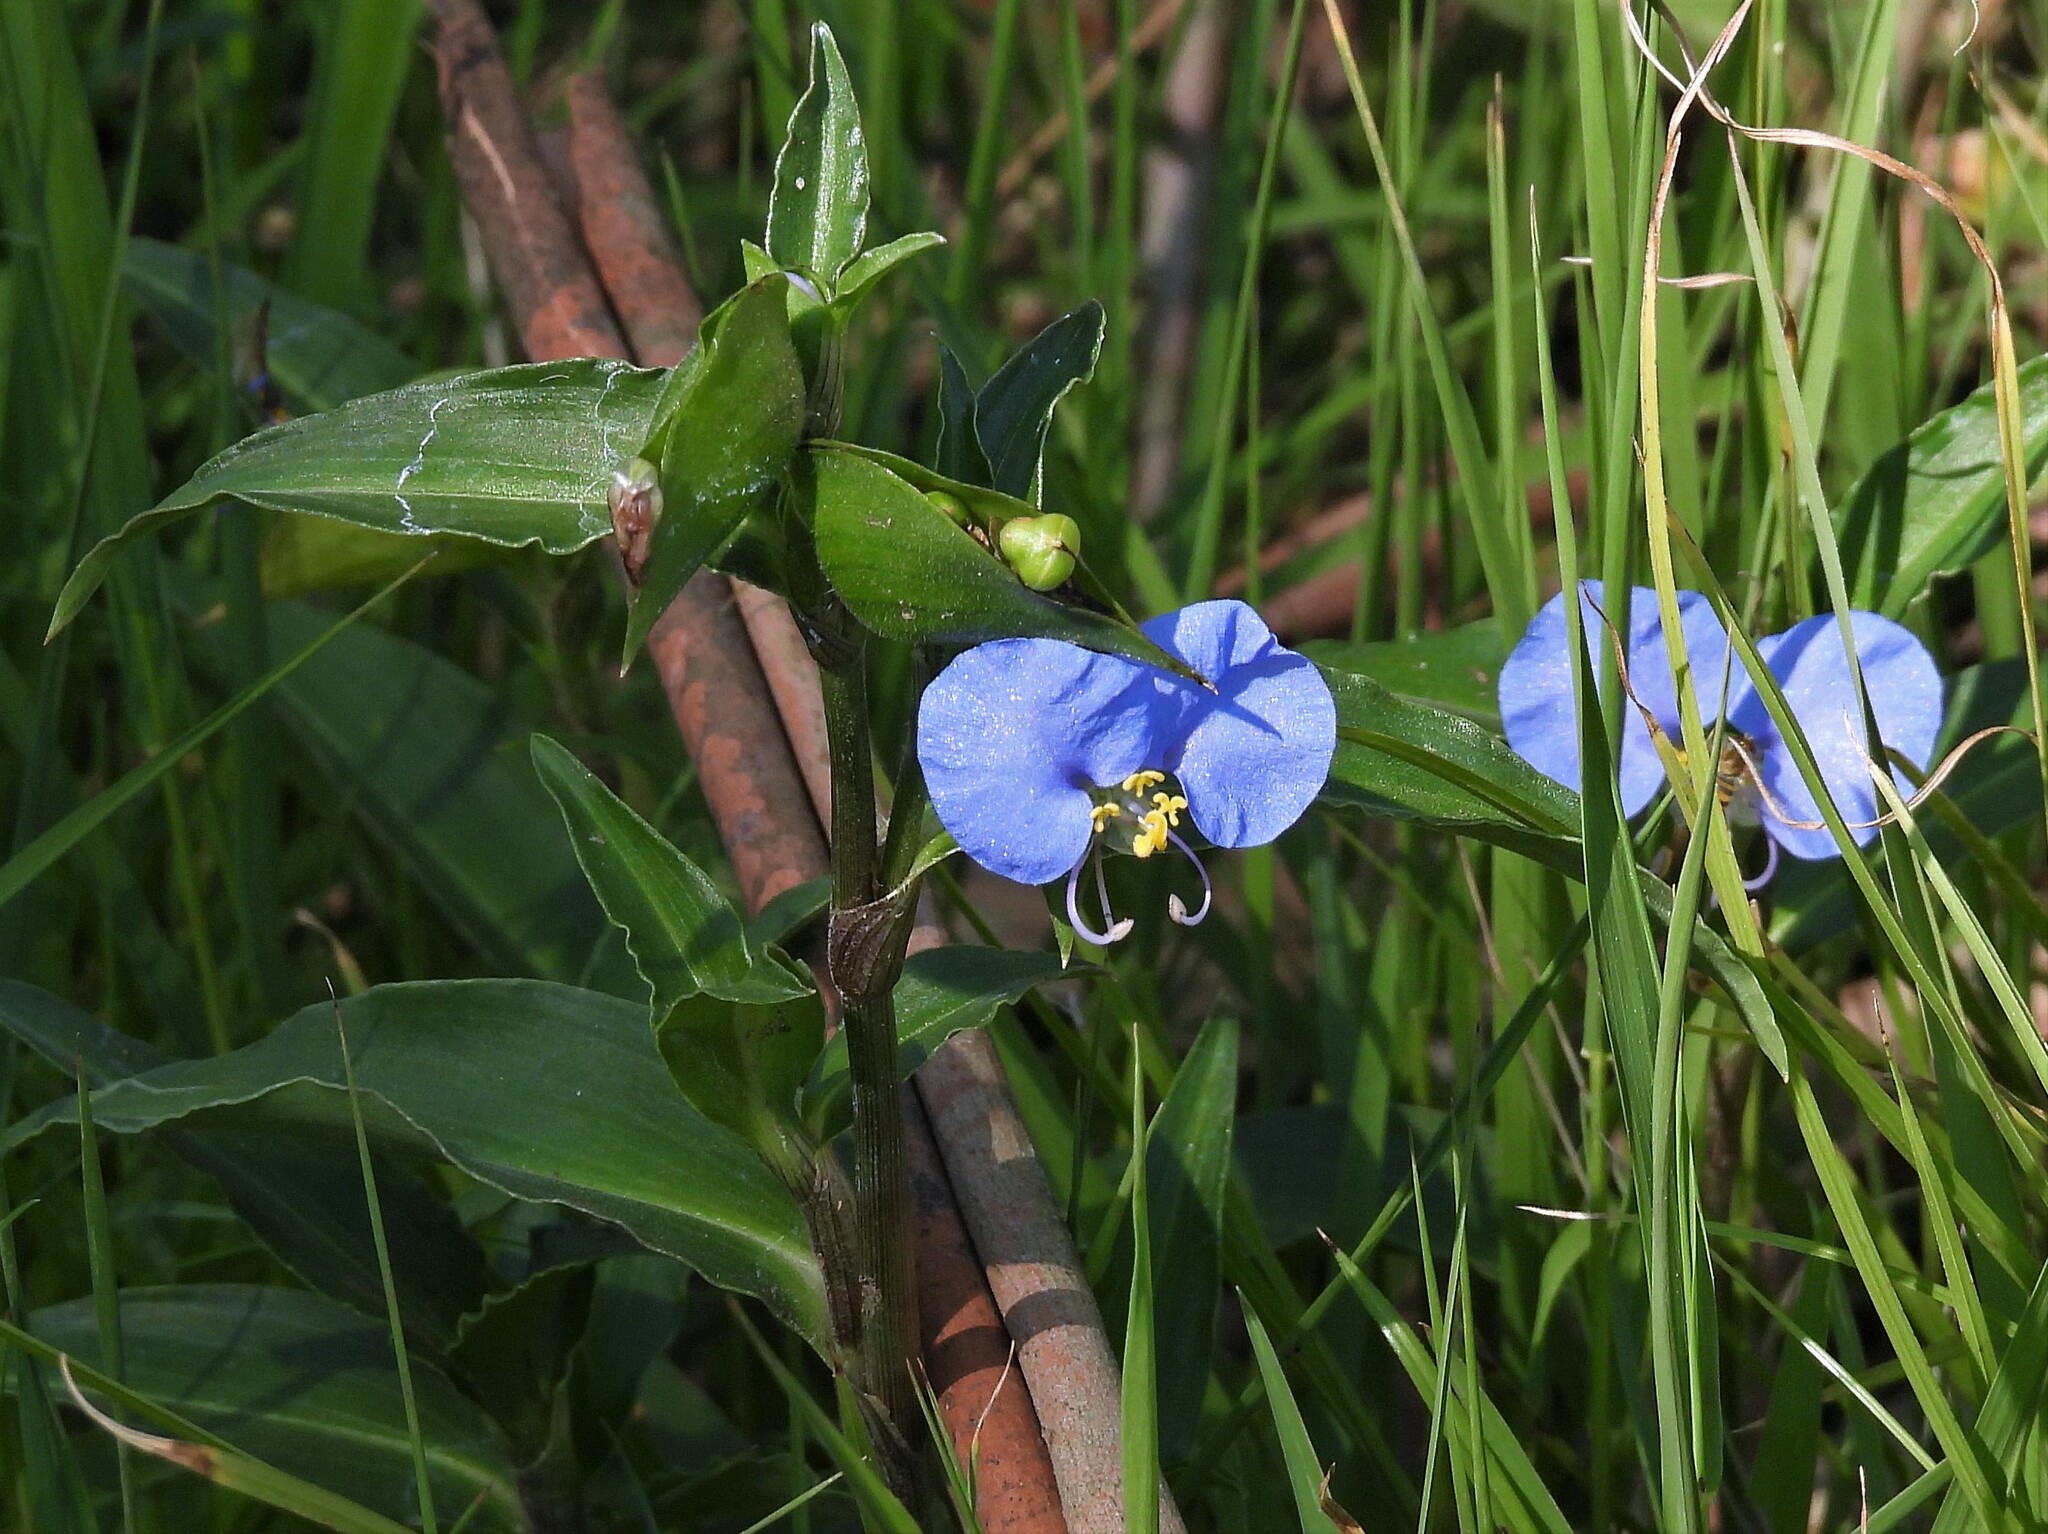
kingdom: Plantae
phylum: Tracheophyta
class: Liliopsida
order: Commelinales
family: Commelinaceae
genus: Commelina
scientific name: Commelina erecta
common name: Blousel blommetjie
